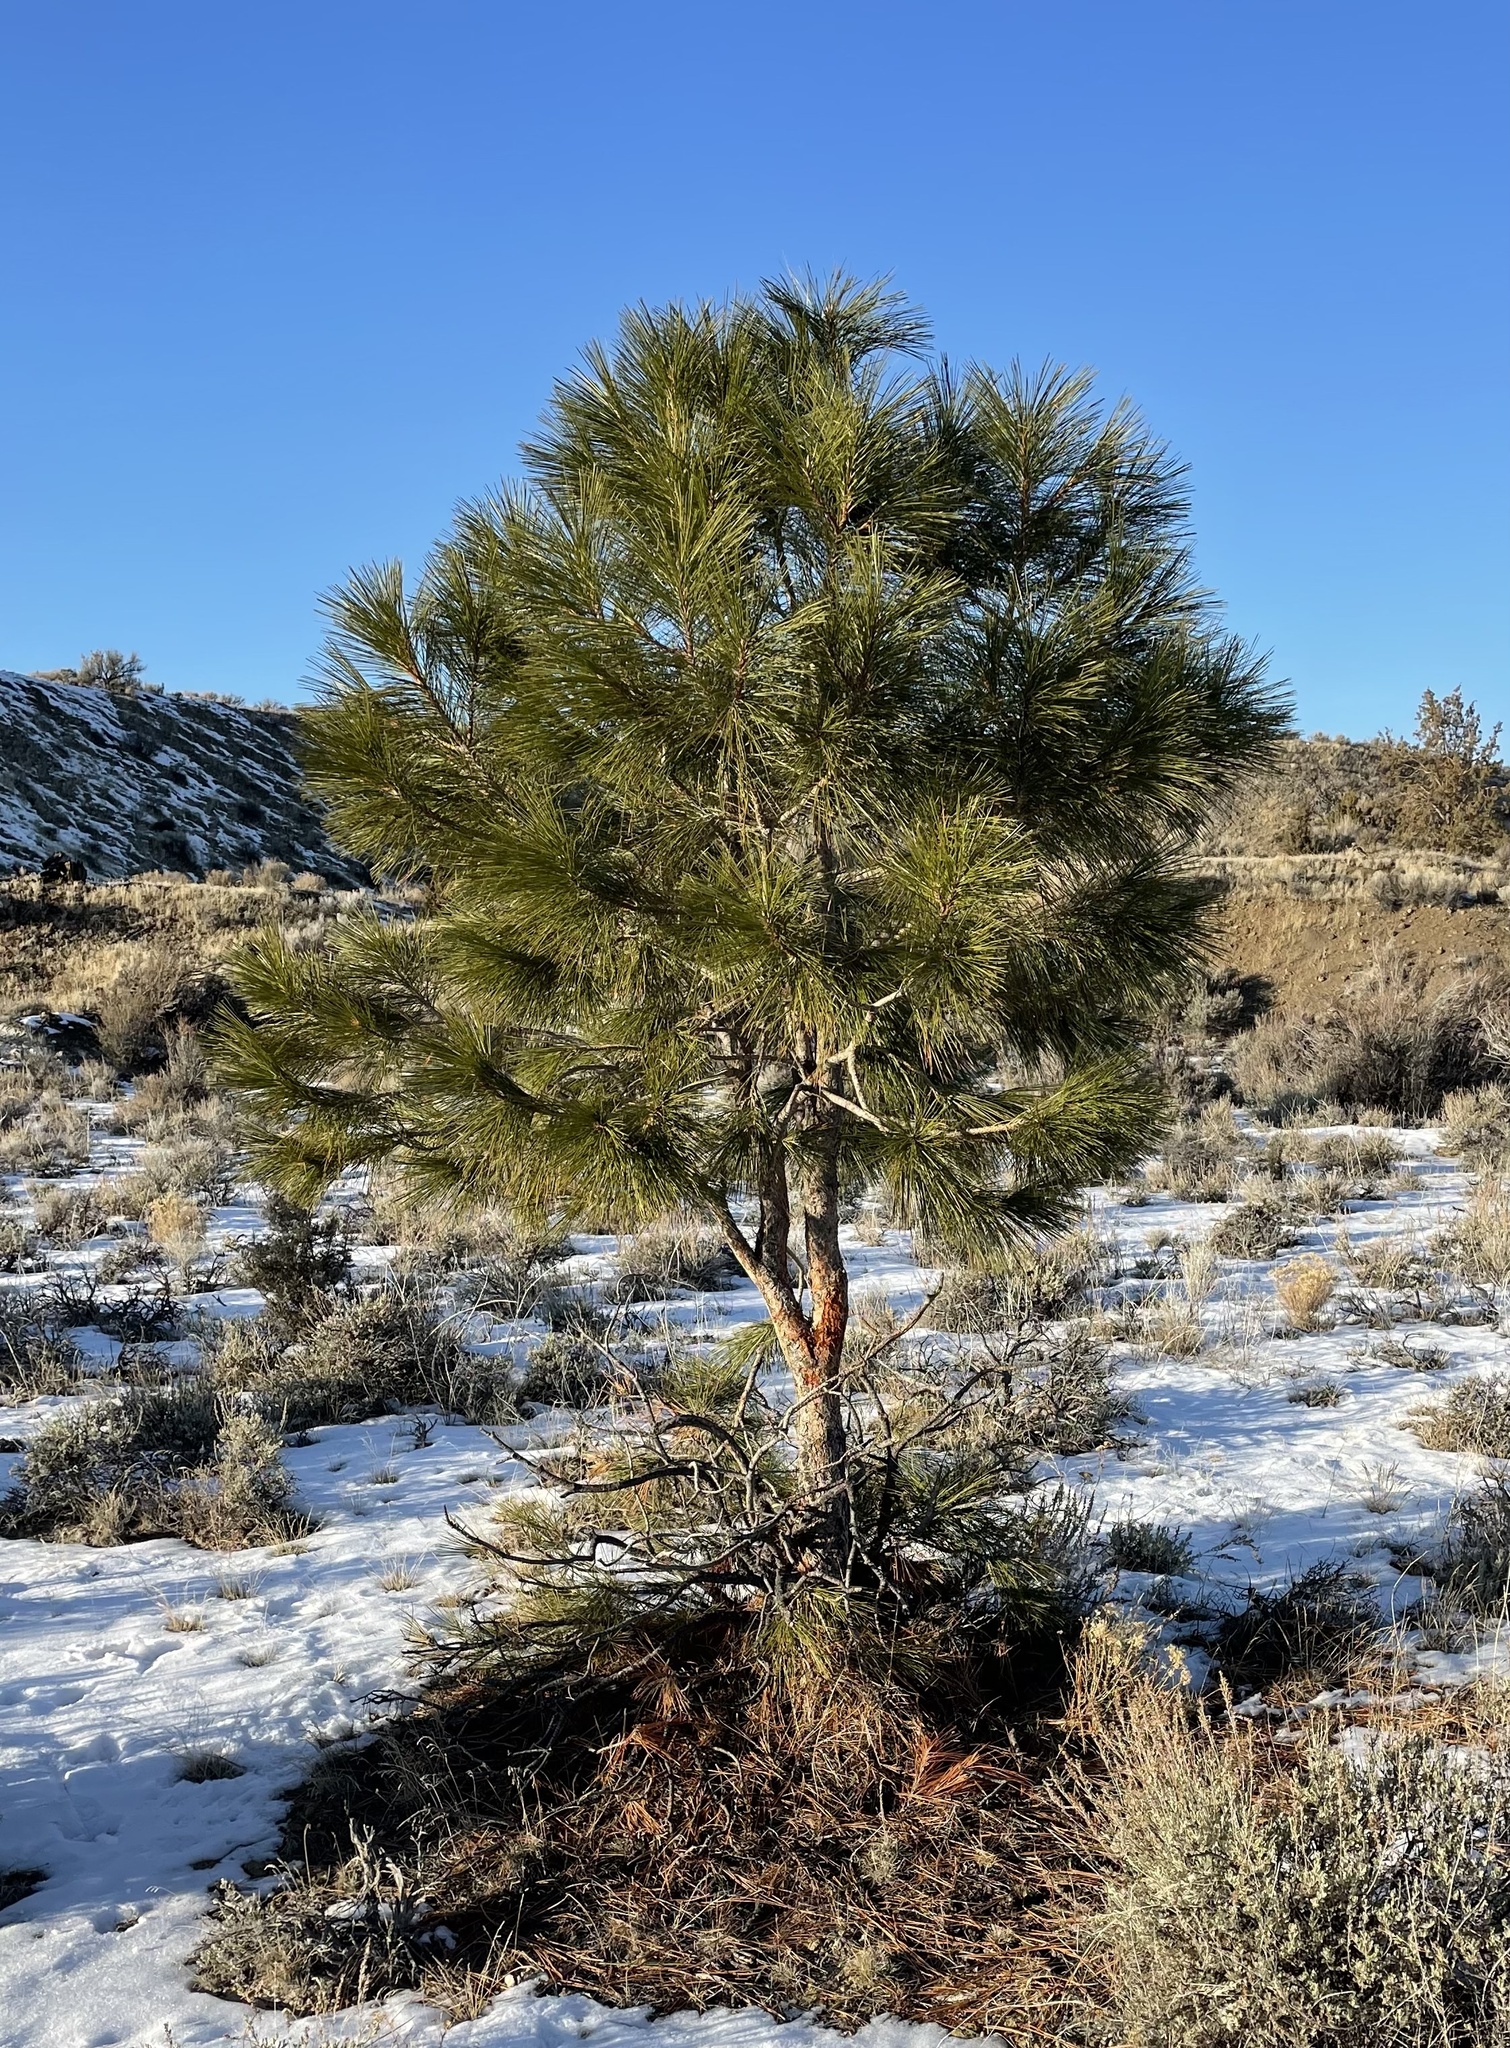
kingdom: Plantae
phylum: Tracheophyta
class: Pinopsida
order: Pinales
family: Pinaceae
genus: Pinus
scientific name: Pinus ponderosa
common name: Western yellow-pine
